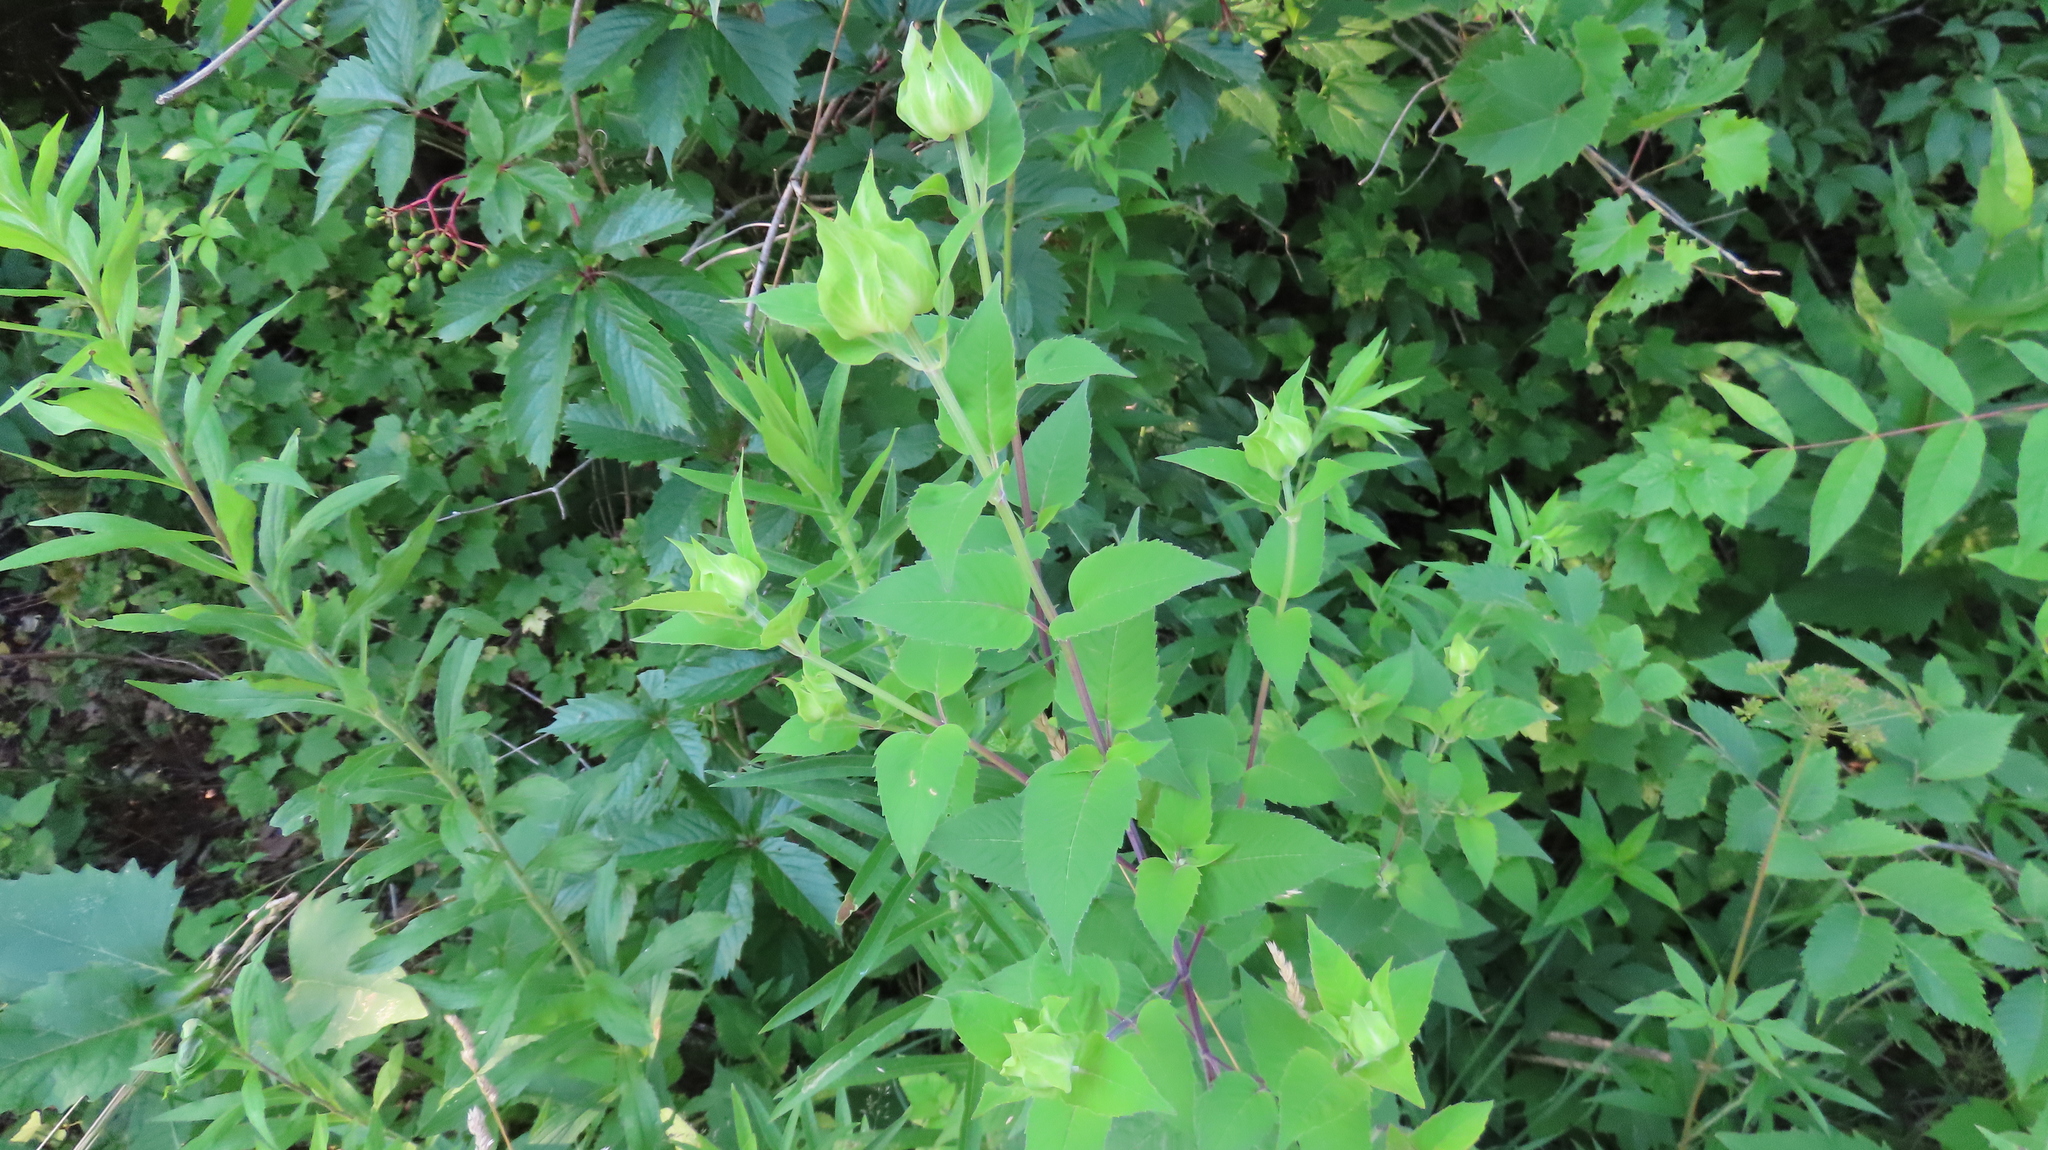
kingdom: Plantae
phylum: Tracheophyta
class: Magnoliopsida
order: Lamiales
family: Lamiaceae
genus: Monarda
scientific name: Monarda fistulosa
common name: Purple beebalm
